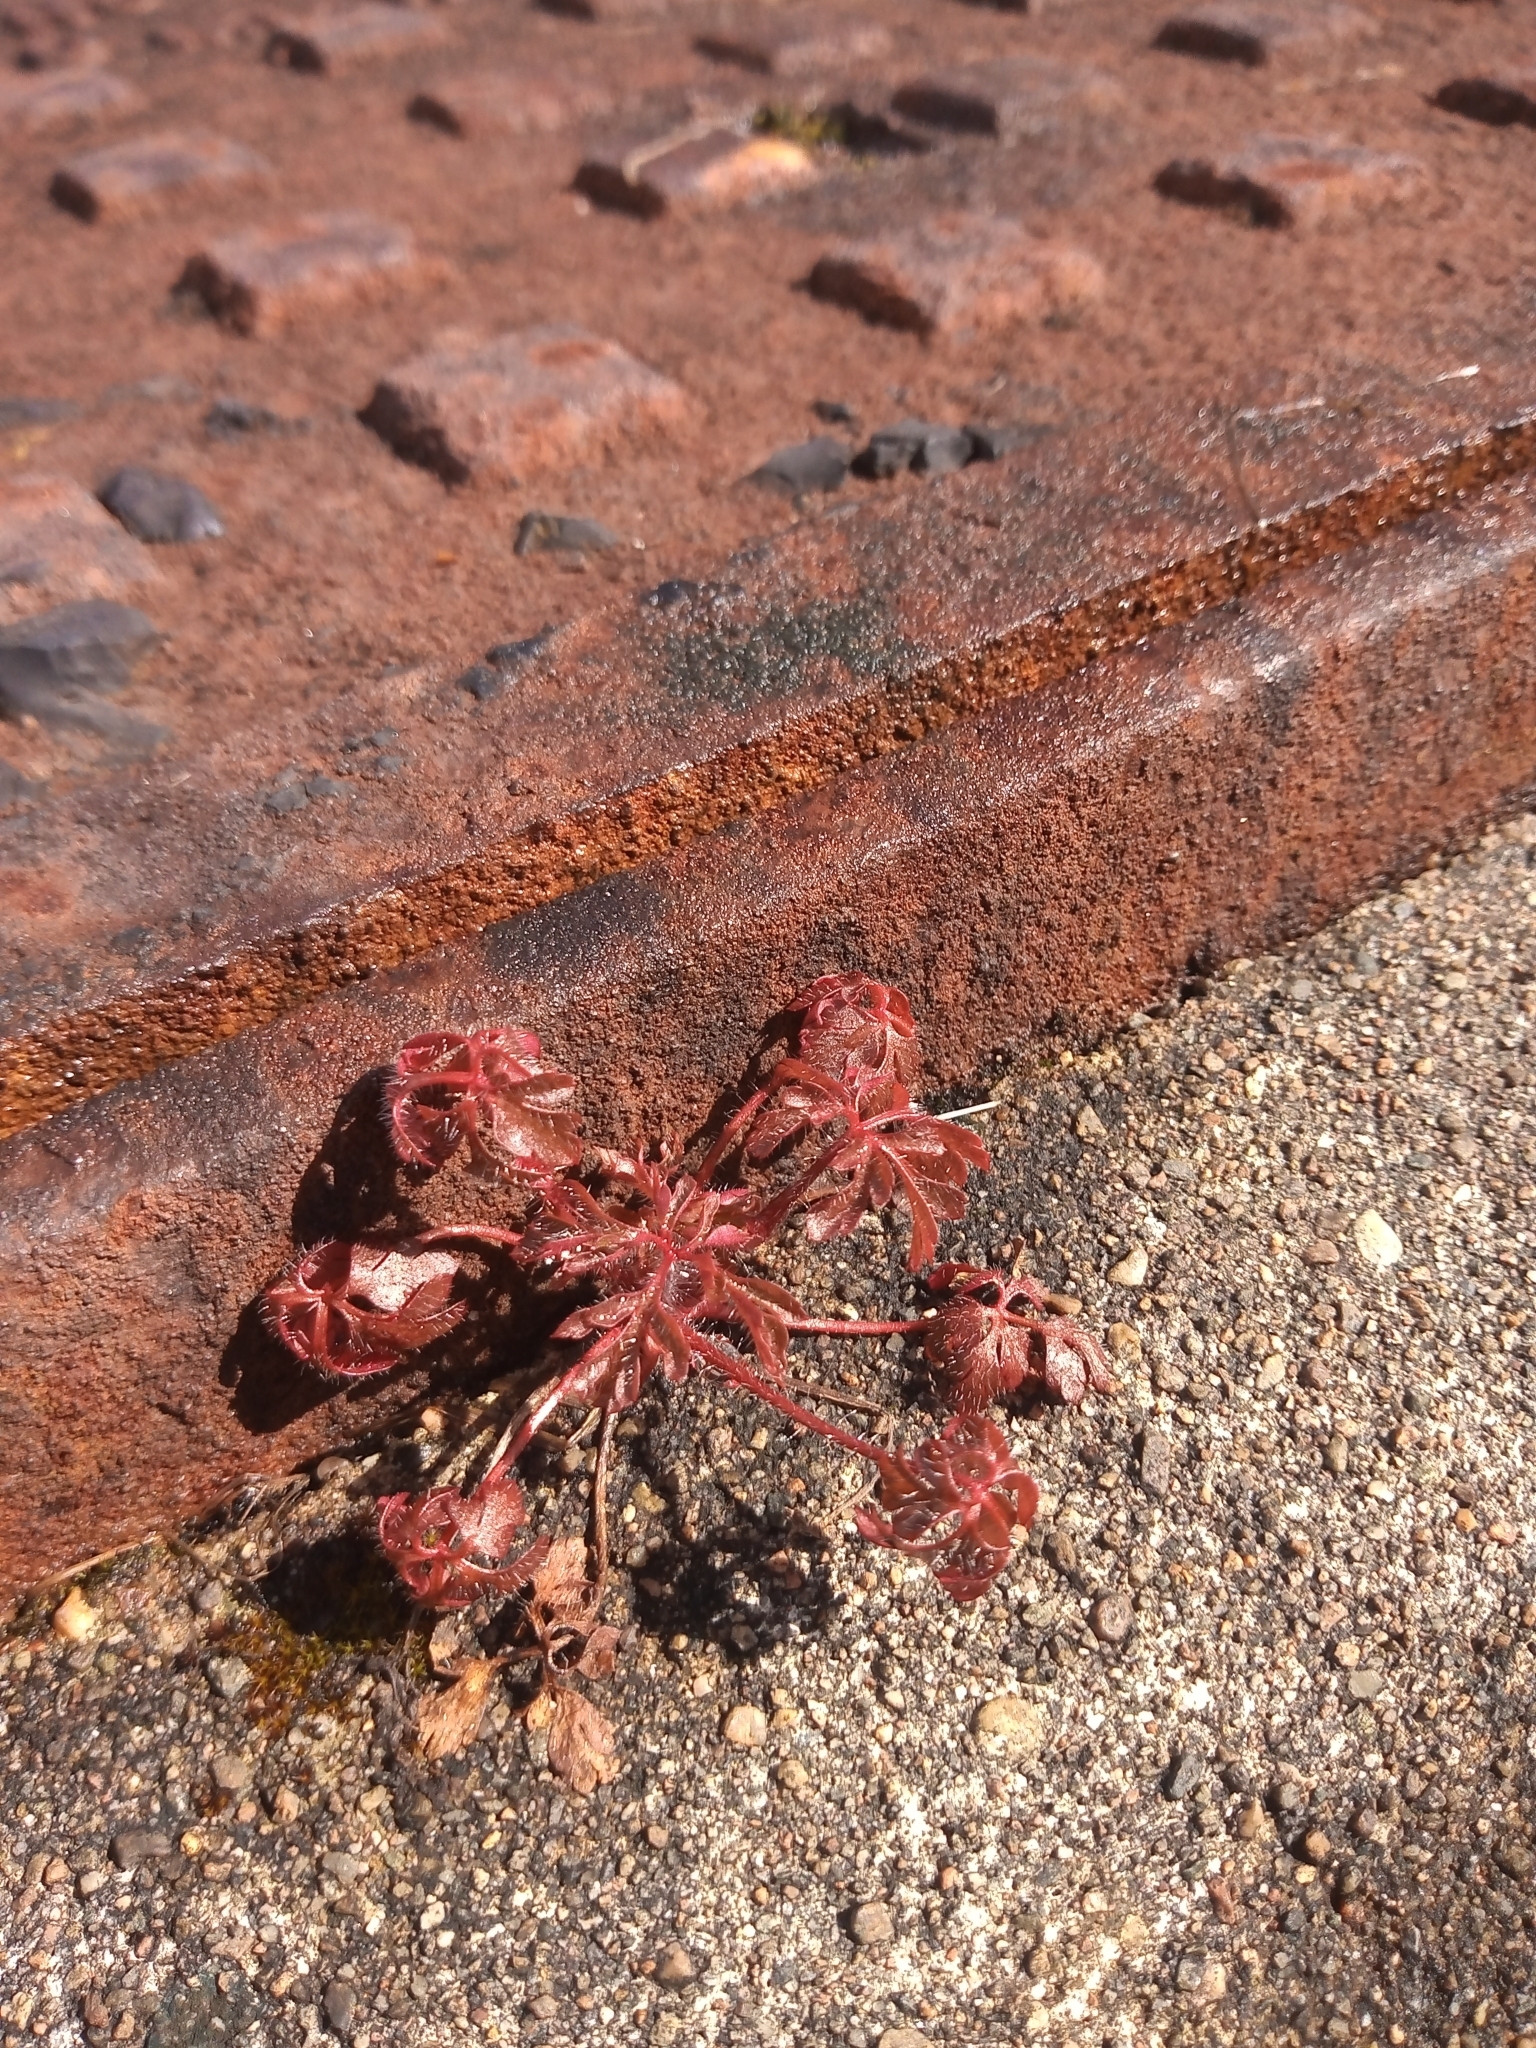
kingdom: Plantae
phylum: Tracheophyta
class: Magnoliopsida
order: Geraniales
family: Geraniaceae
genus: Geranium
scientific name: Geranium robertianum
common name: Herb-robert
